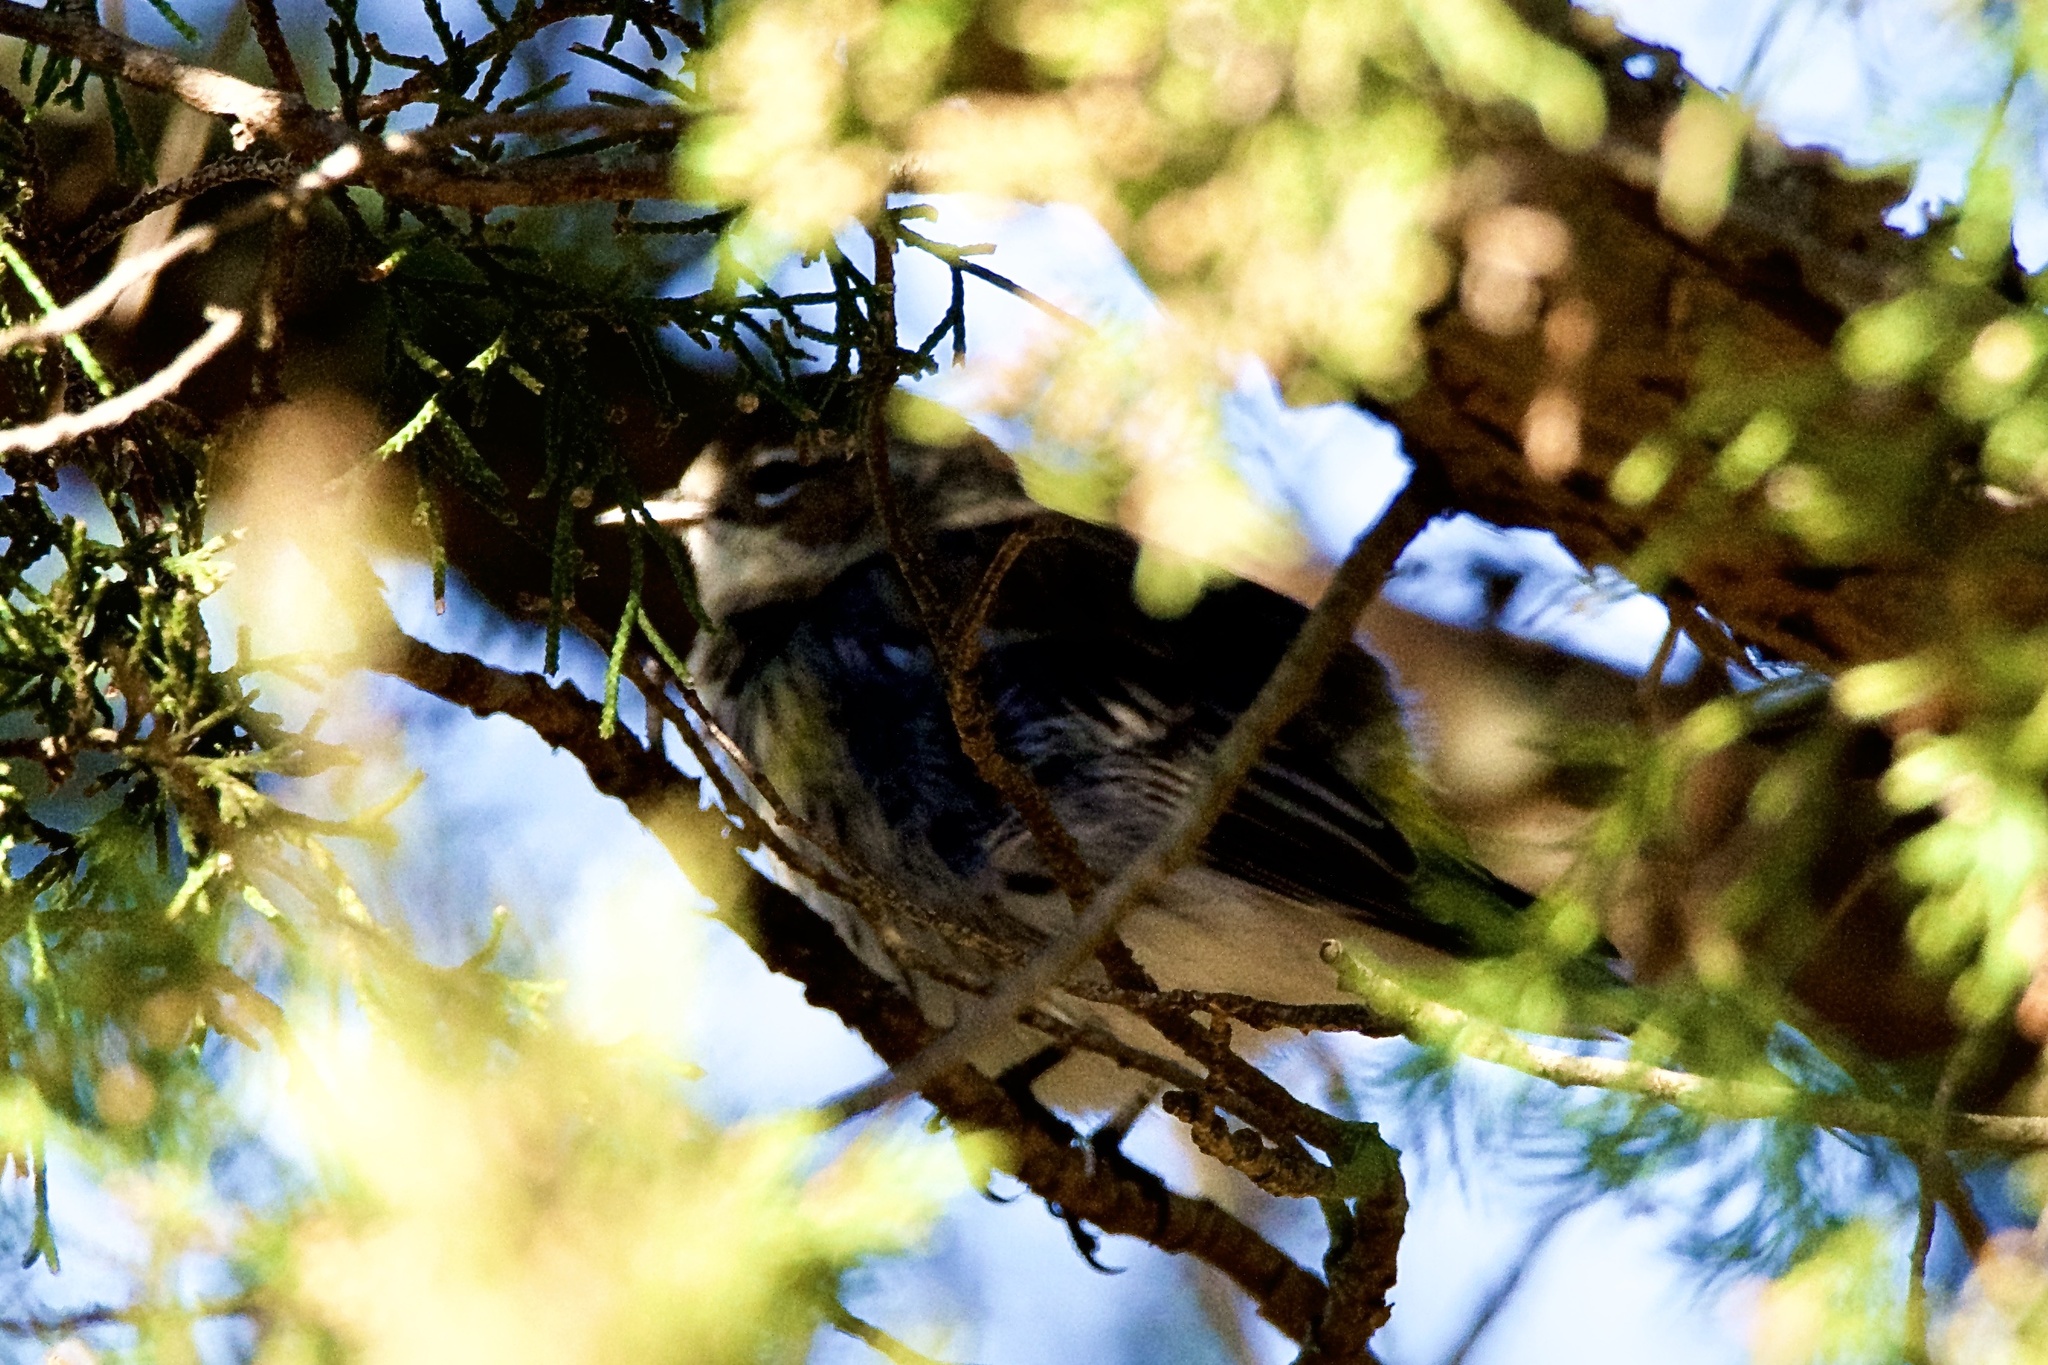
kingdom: Animalia
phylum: Chordata
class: Aves
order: Passeriformes
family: Parulidae
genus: Setophaga
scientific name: Setophaga coronata
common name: Myrtle warbler
